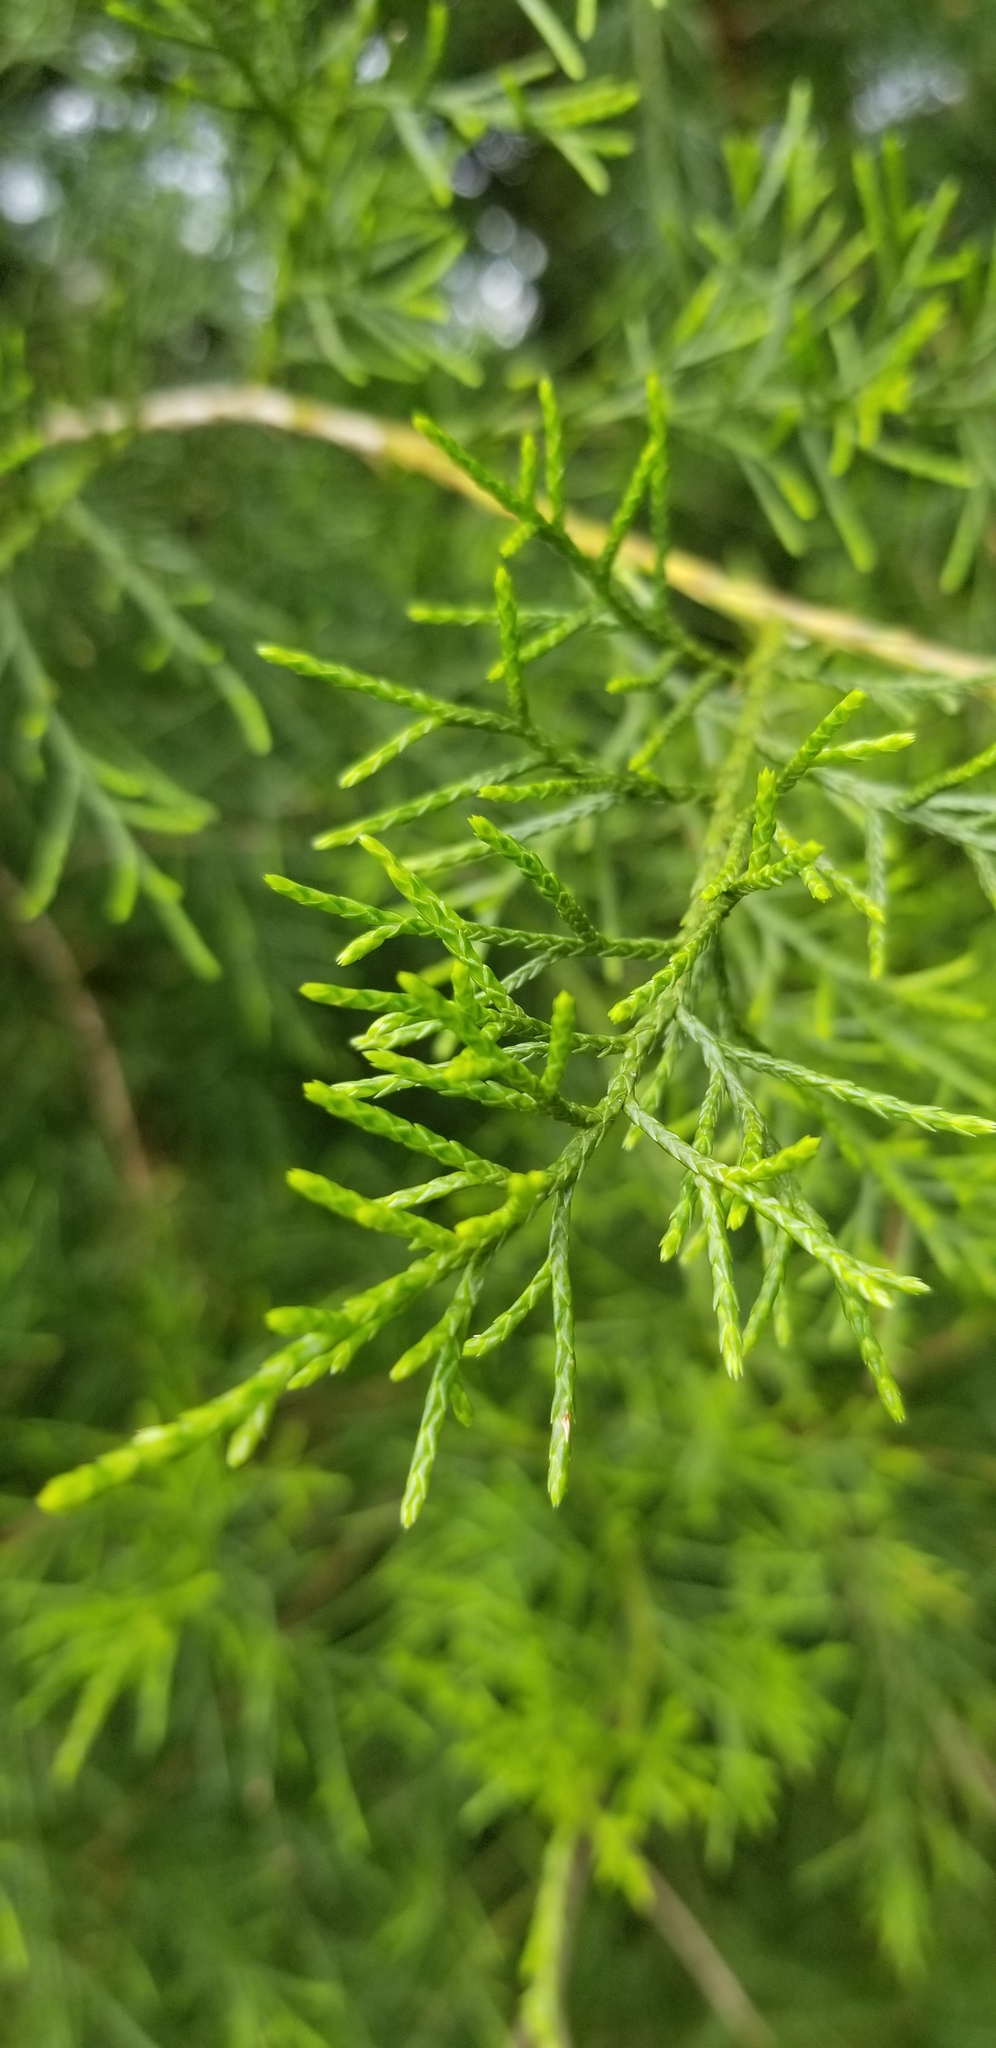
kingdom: Plantae
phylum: Tracheophyta
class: Pinopsida
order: Pinales
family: Cupressaceae
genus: Juniperus
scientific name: Juniperus virginiana
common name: Red juniper
